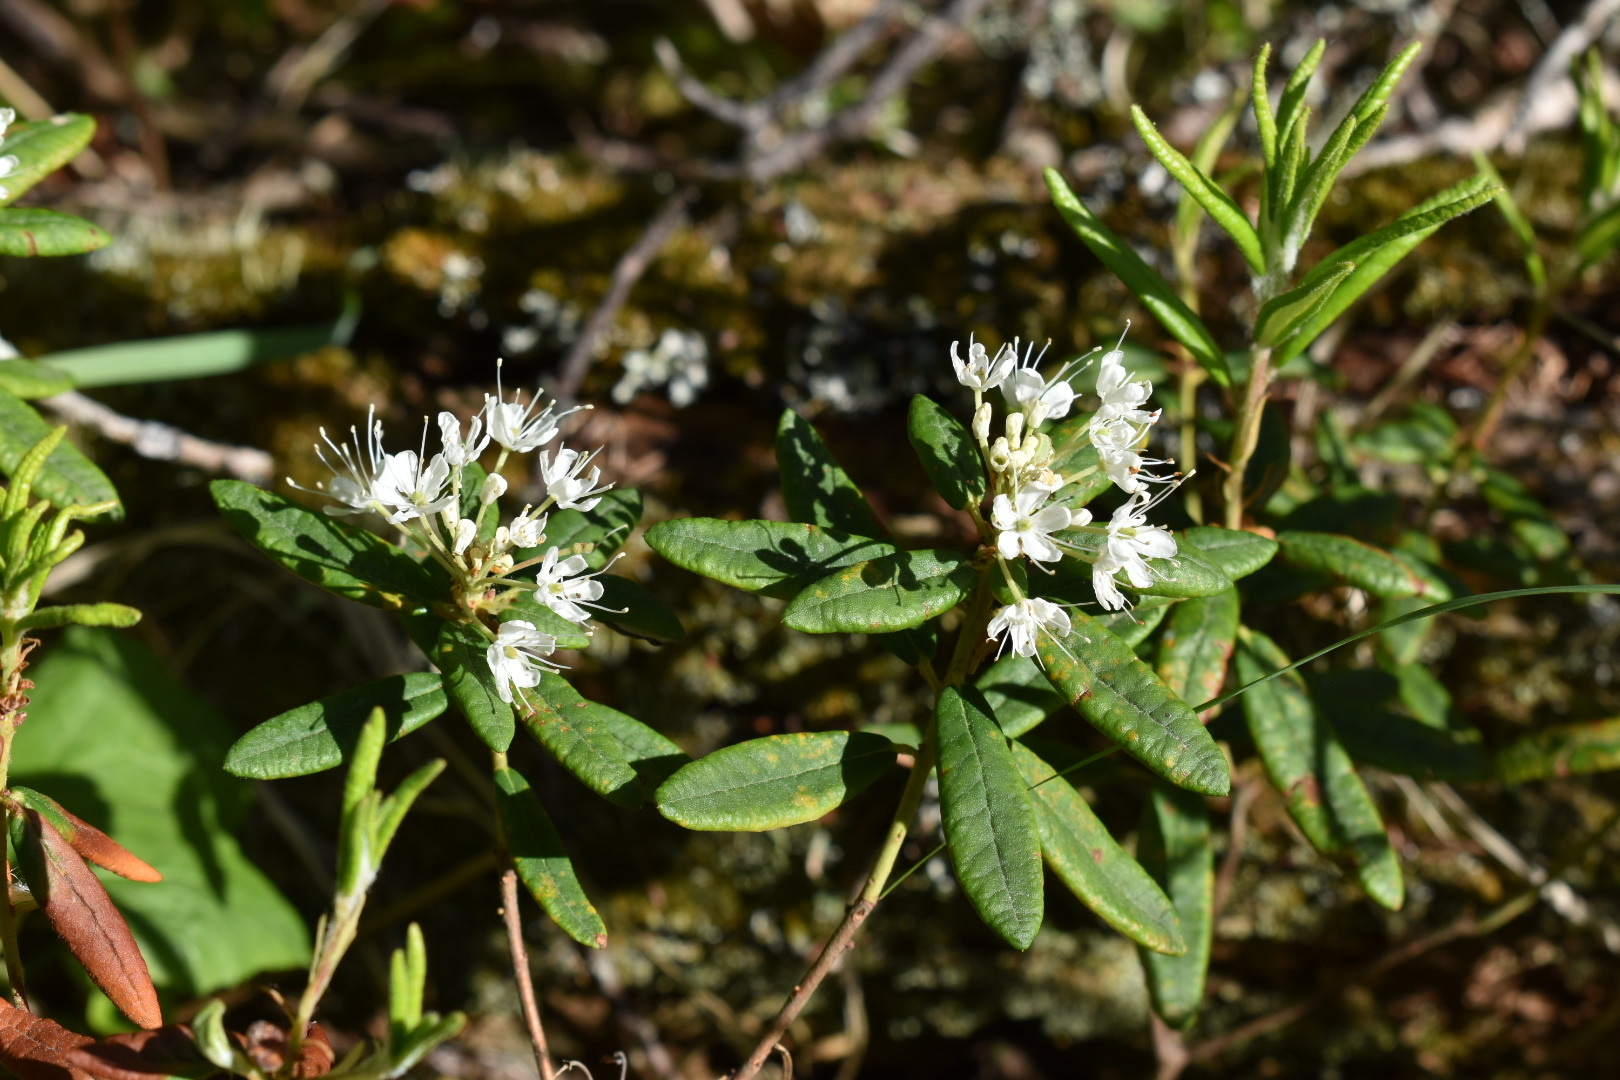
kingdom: Plantae
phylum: Tracheophyta
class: Magnoliopsida
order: Ericales
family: Ericaceae
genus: Rhododendron
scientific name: Rhododendron groenlandicum
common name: Bog labrador tea
